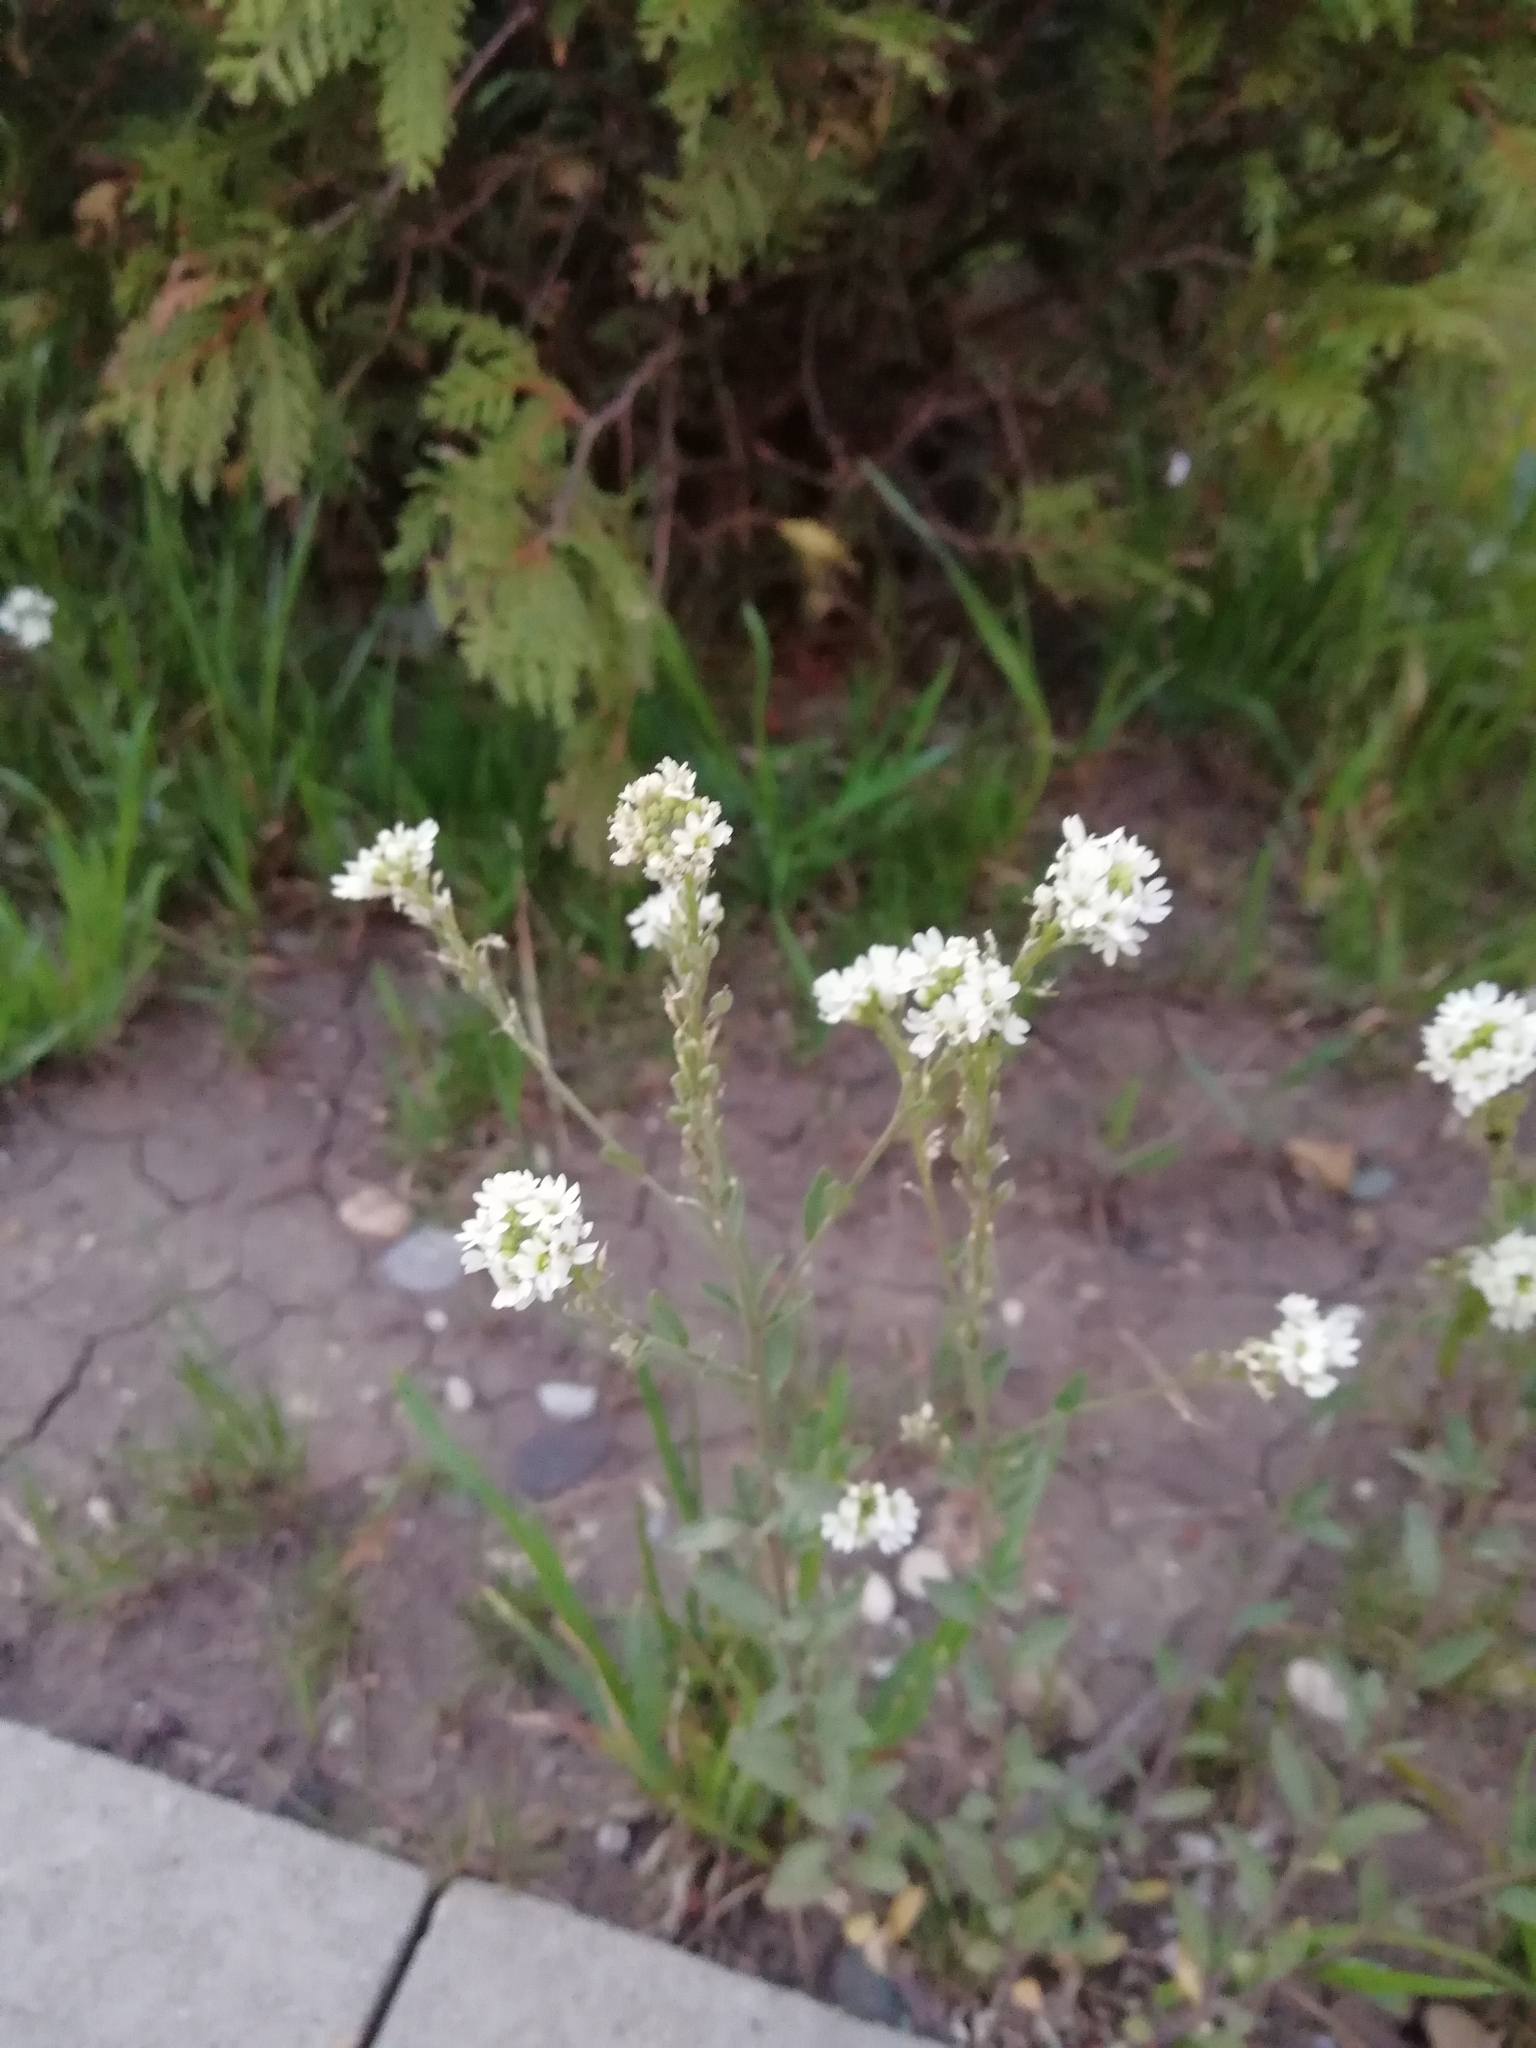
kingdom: Plantae
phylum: Tracheophyta
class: Magnoliopsida
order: Brassicales
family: Brassicaceae
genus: Berteroa
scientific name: Berteroa incana
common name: Hoary alison
